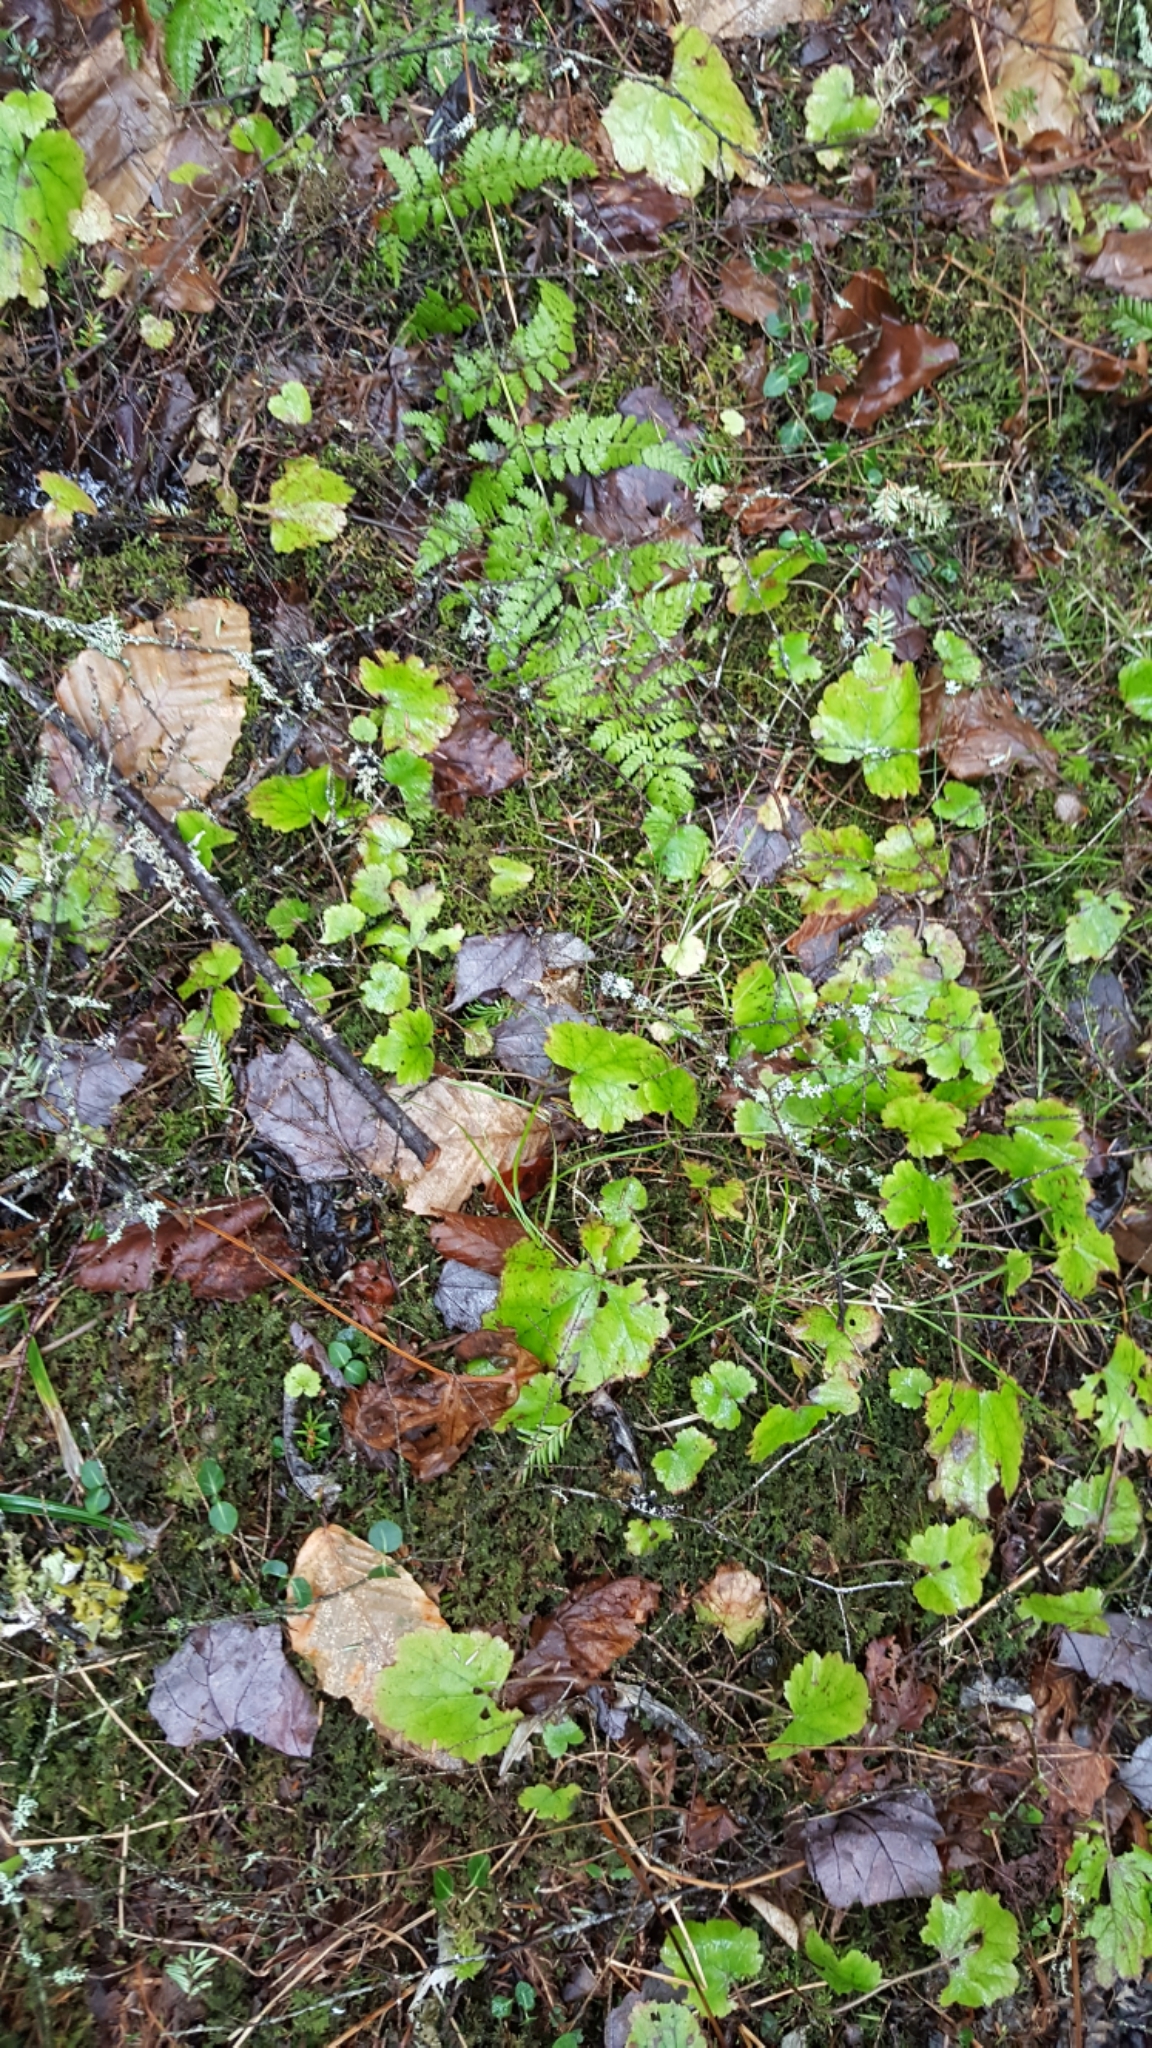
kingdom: Plantae
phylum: Tracheophyta
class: Magnoliopsida
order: Saxifragales
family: Saxifragaceae
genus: Tiarella
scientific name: Tiarella stolonifera
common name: Stoloniferous foamflower
